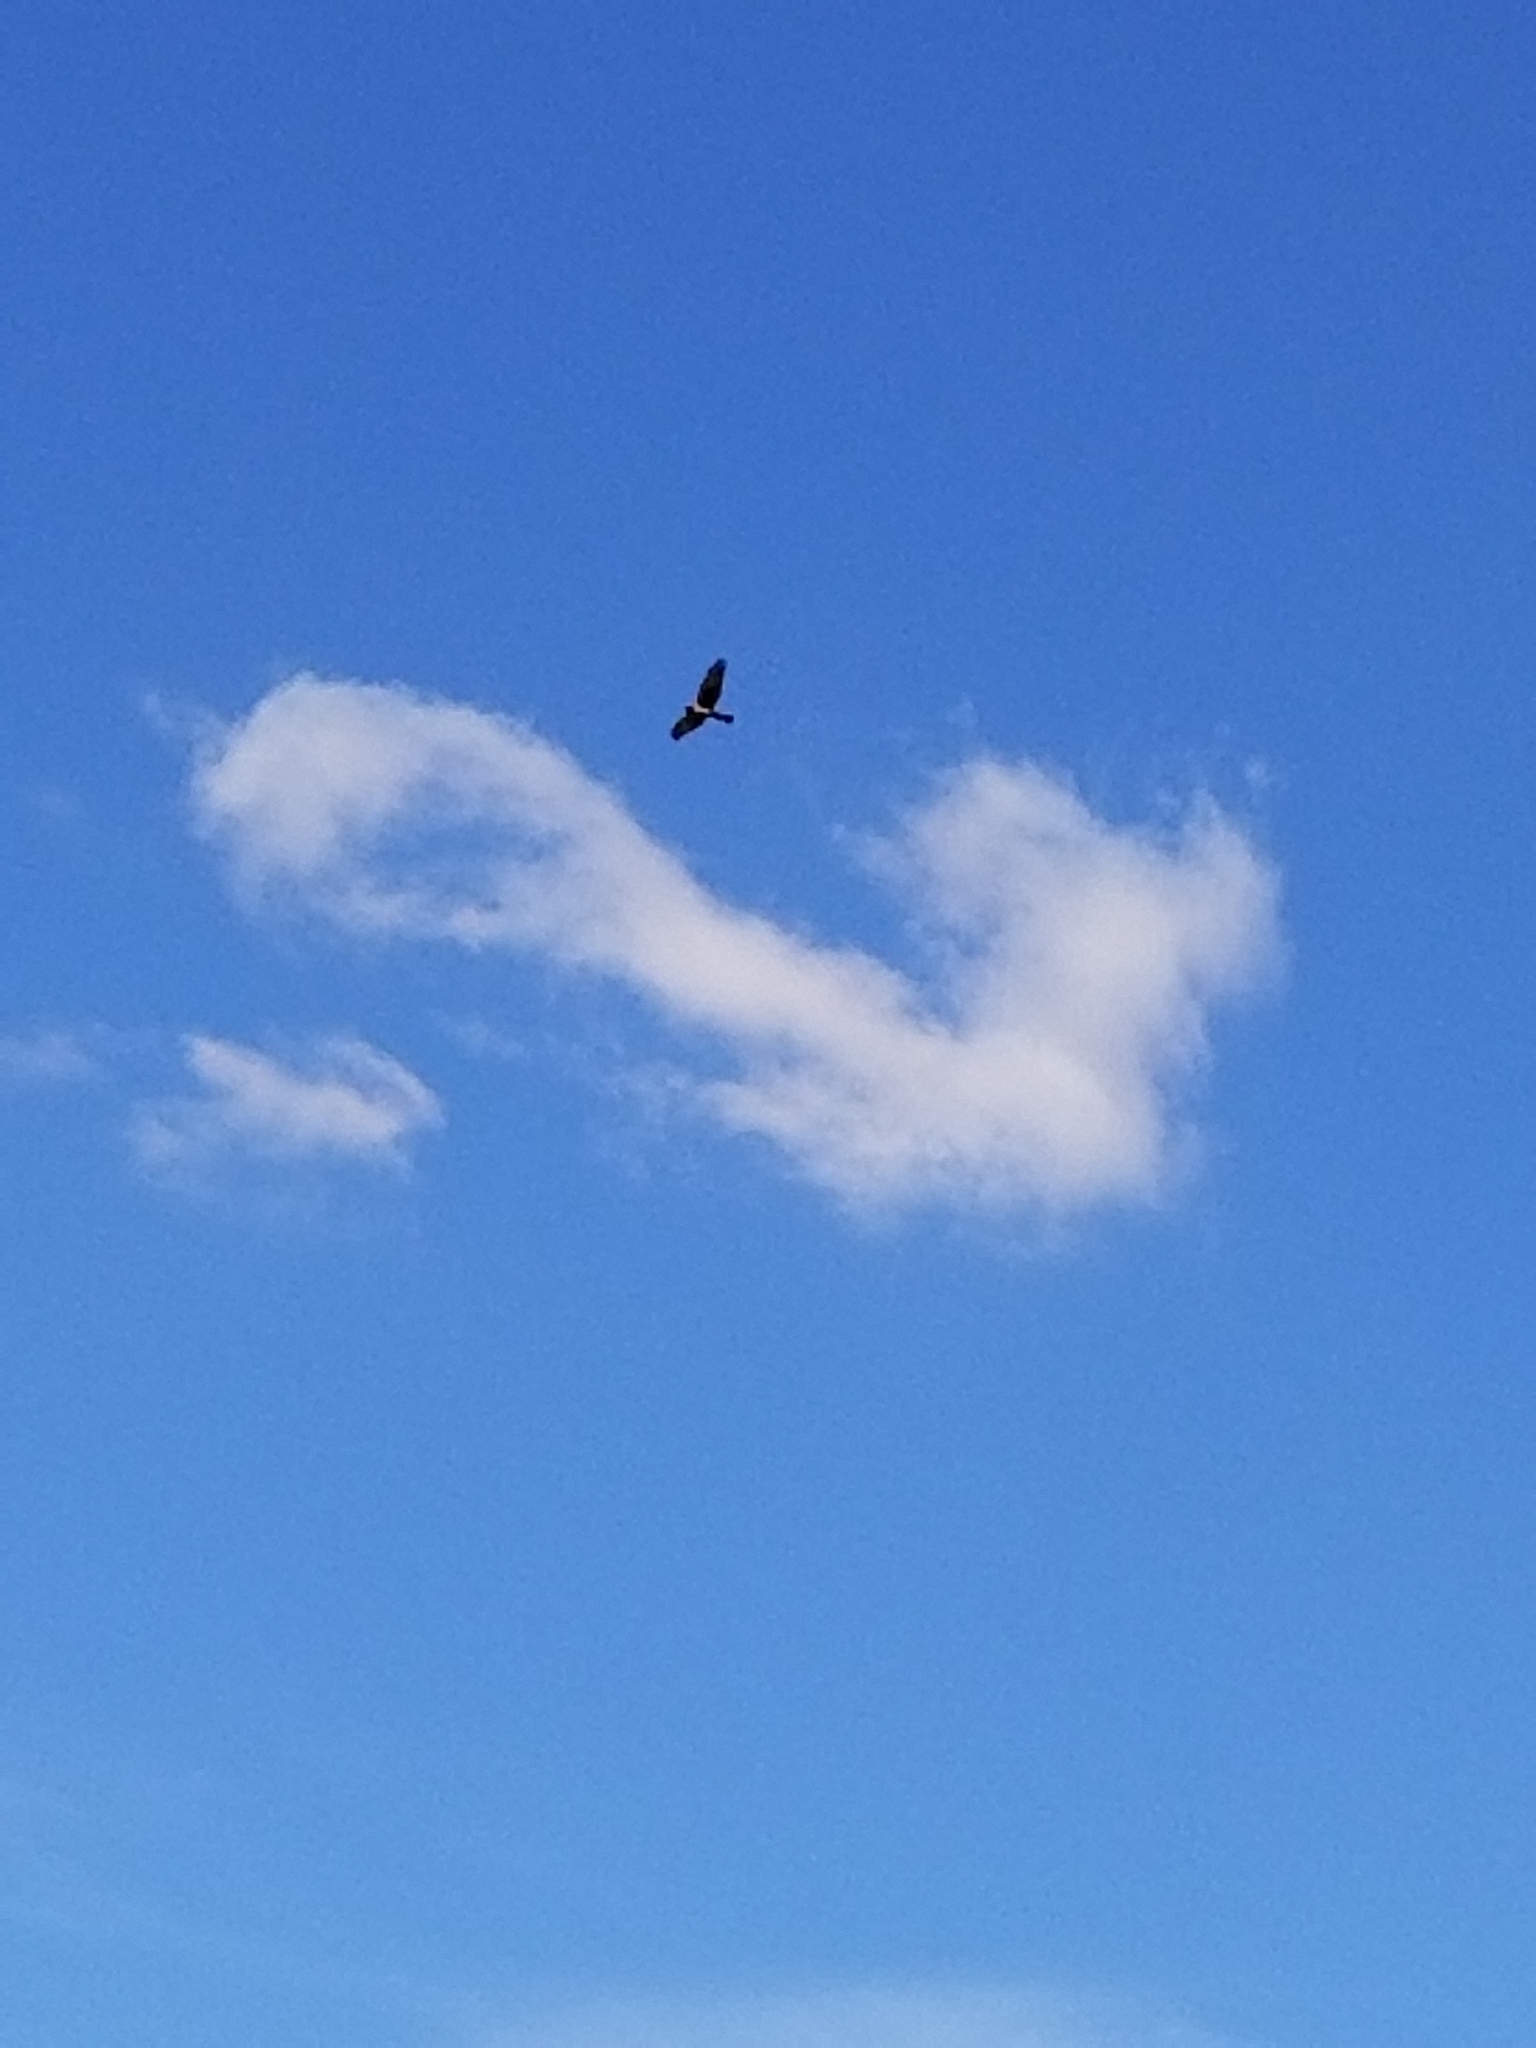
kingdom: Animalia
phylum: Chordata
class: Aves
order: Accipitriformes
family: Accipitridae
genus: Circus
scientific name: Circus cyaneus
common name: Hen harrier
